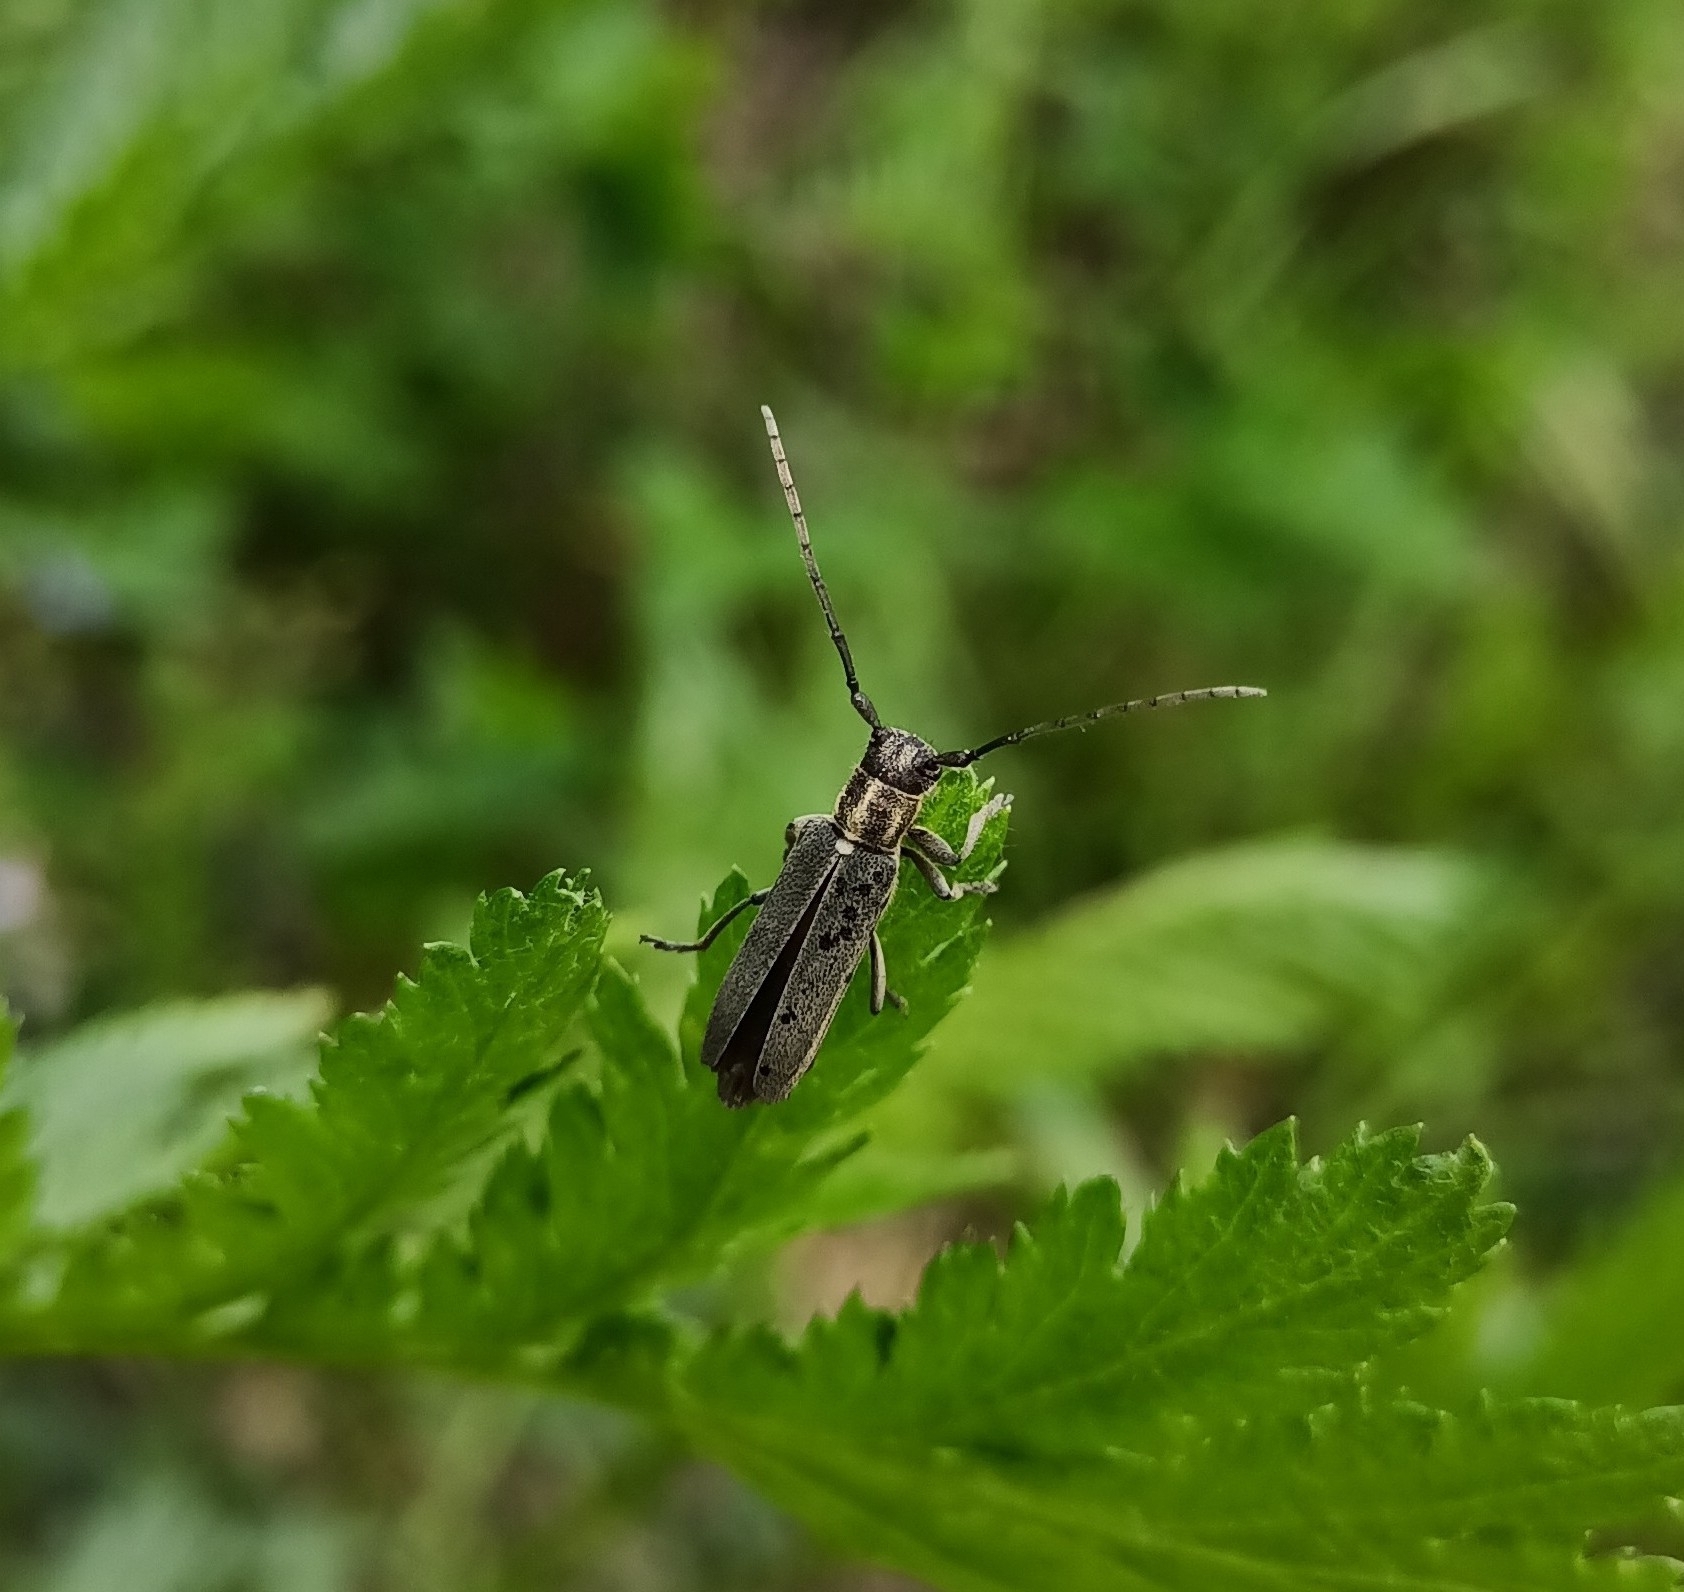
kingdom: Animalia
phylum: Arthropoda
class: Insecta
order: Coleoptera
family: Cerambycidae
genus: Phytoecia
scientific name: Phytoecia nigricornis
